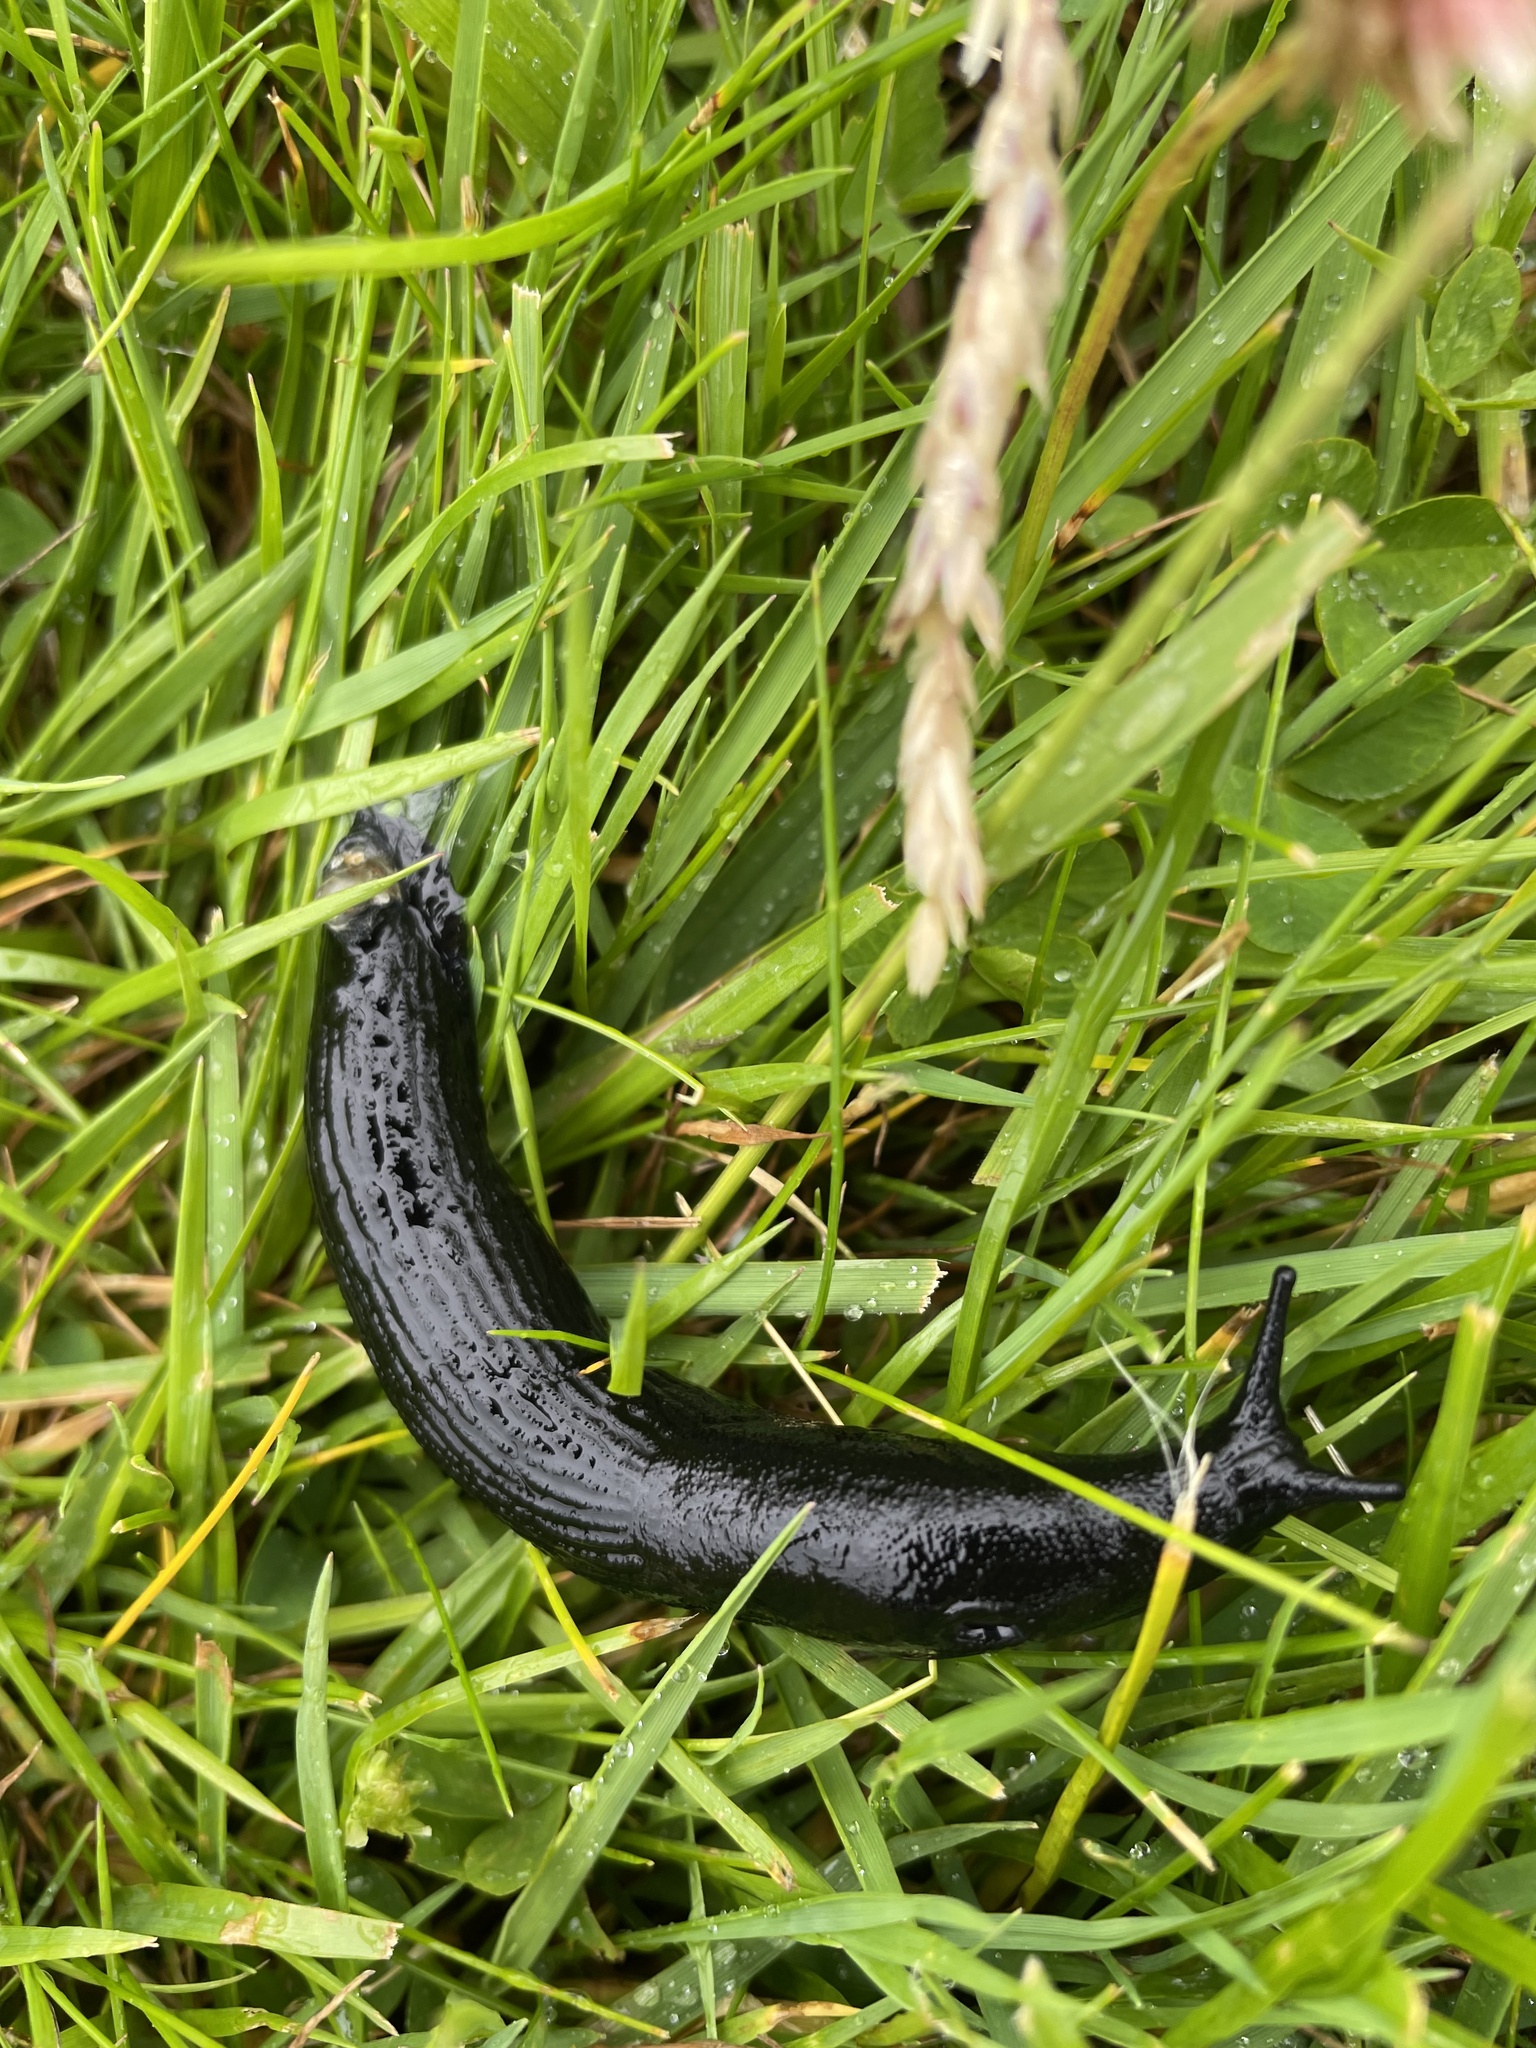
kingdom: Animalia
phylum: Mollusca
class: Gastropoda
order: Stylommatophora
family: Arionidae
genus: Arion
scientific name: Arion ater
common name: Black arion
